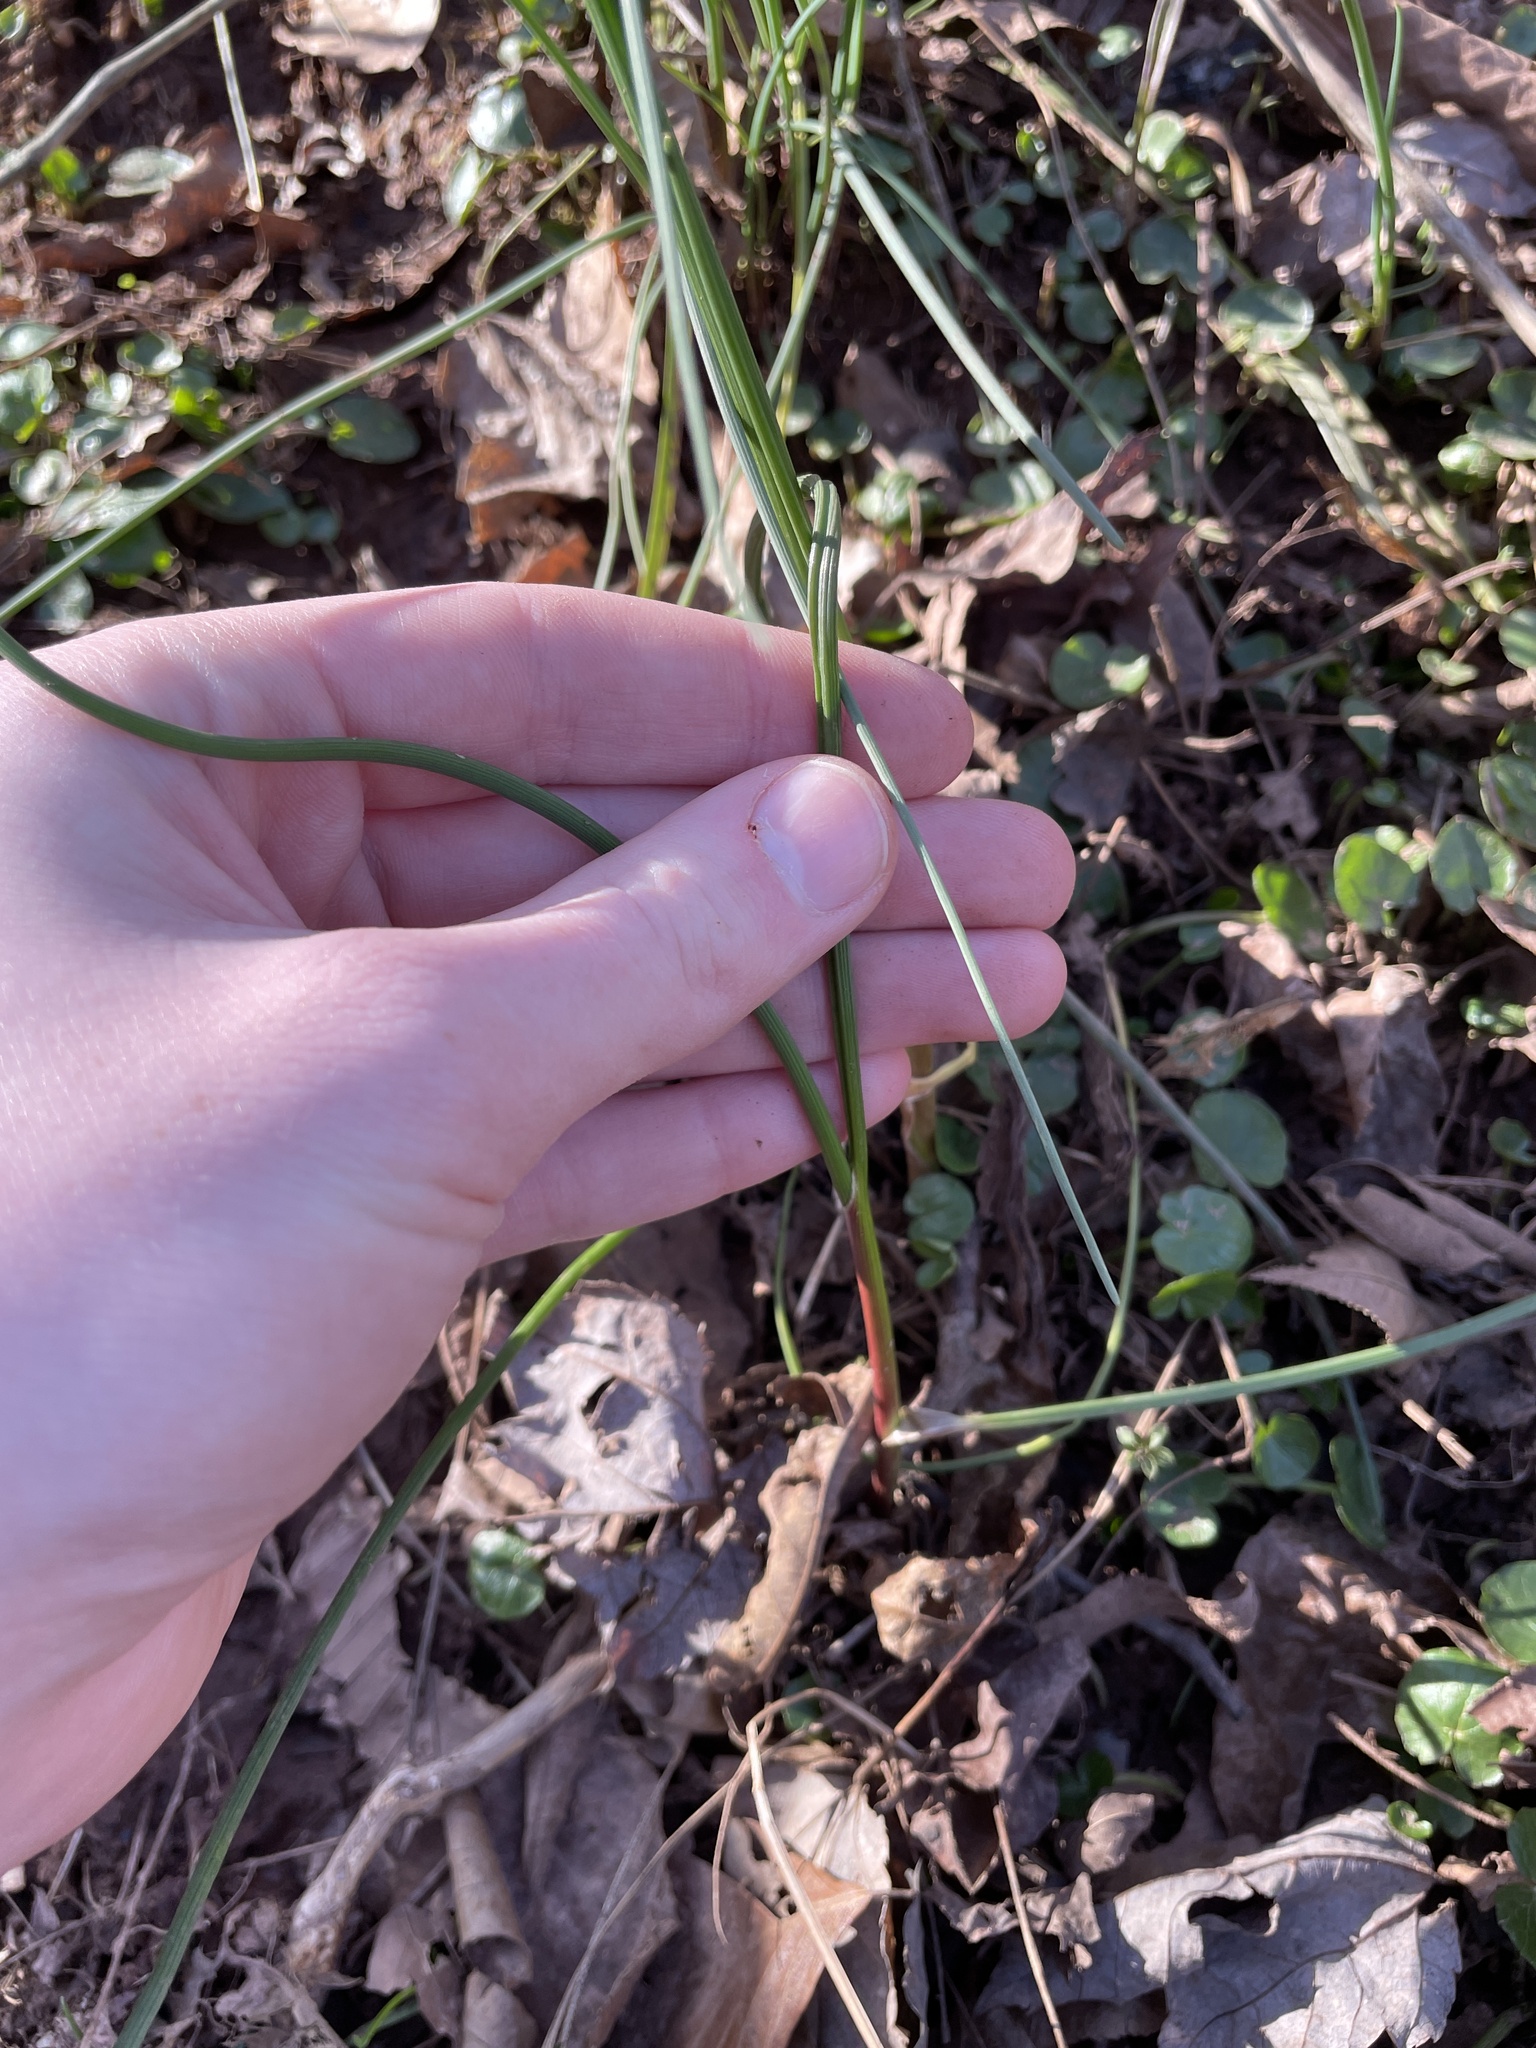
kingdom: Plantae
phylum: Tracheophyta
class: Liliopsida
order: Asparagales
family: Amaryllidaceae
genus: Allium
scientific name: Allium vineale
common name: Crow garlic
